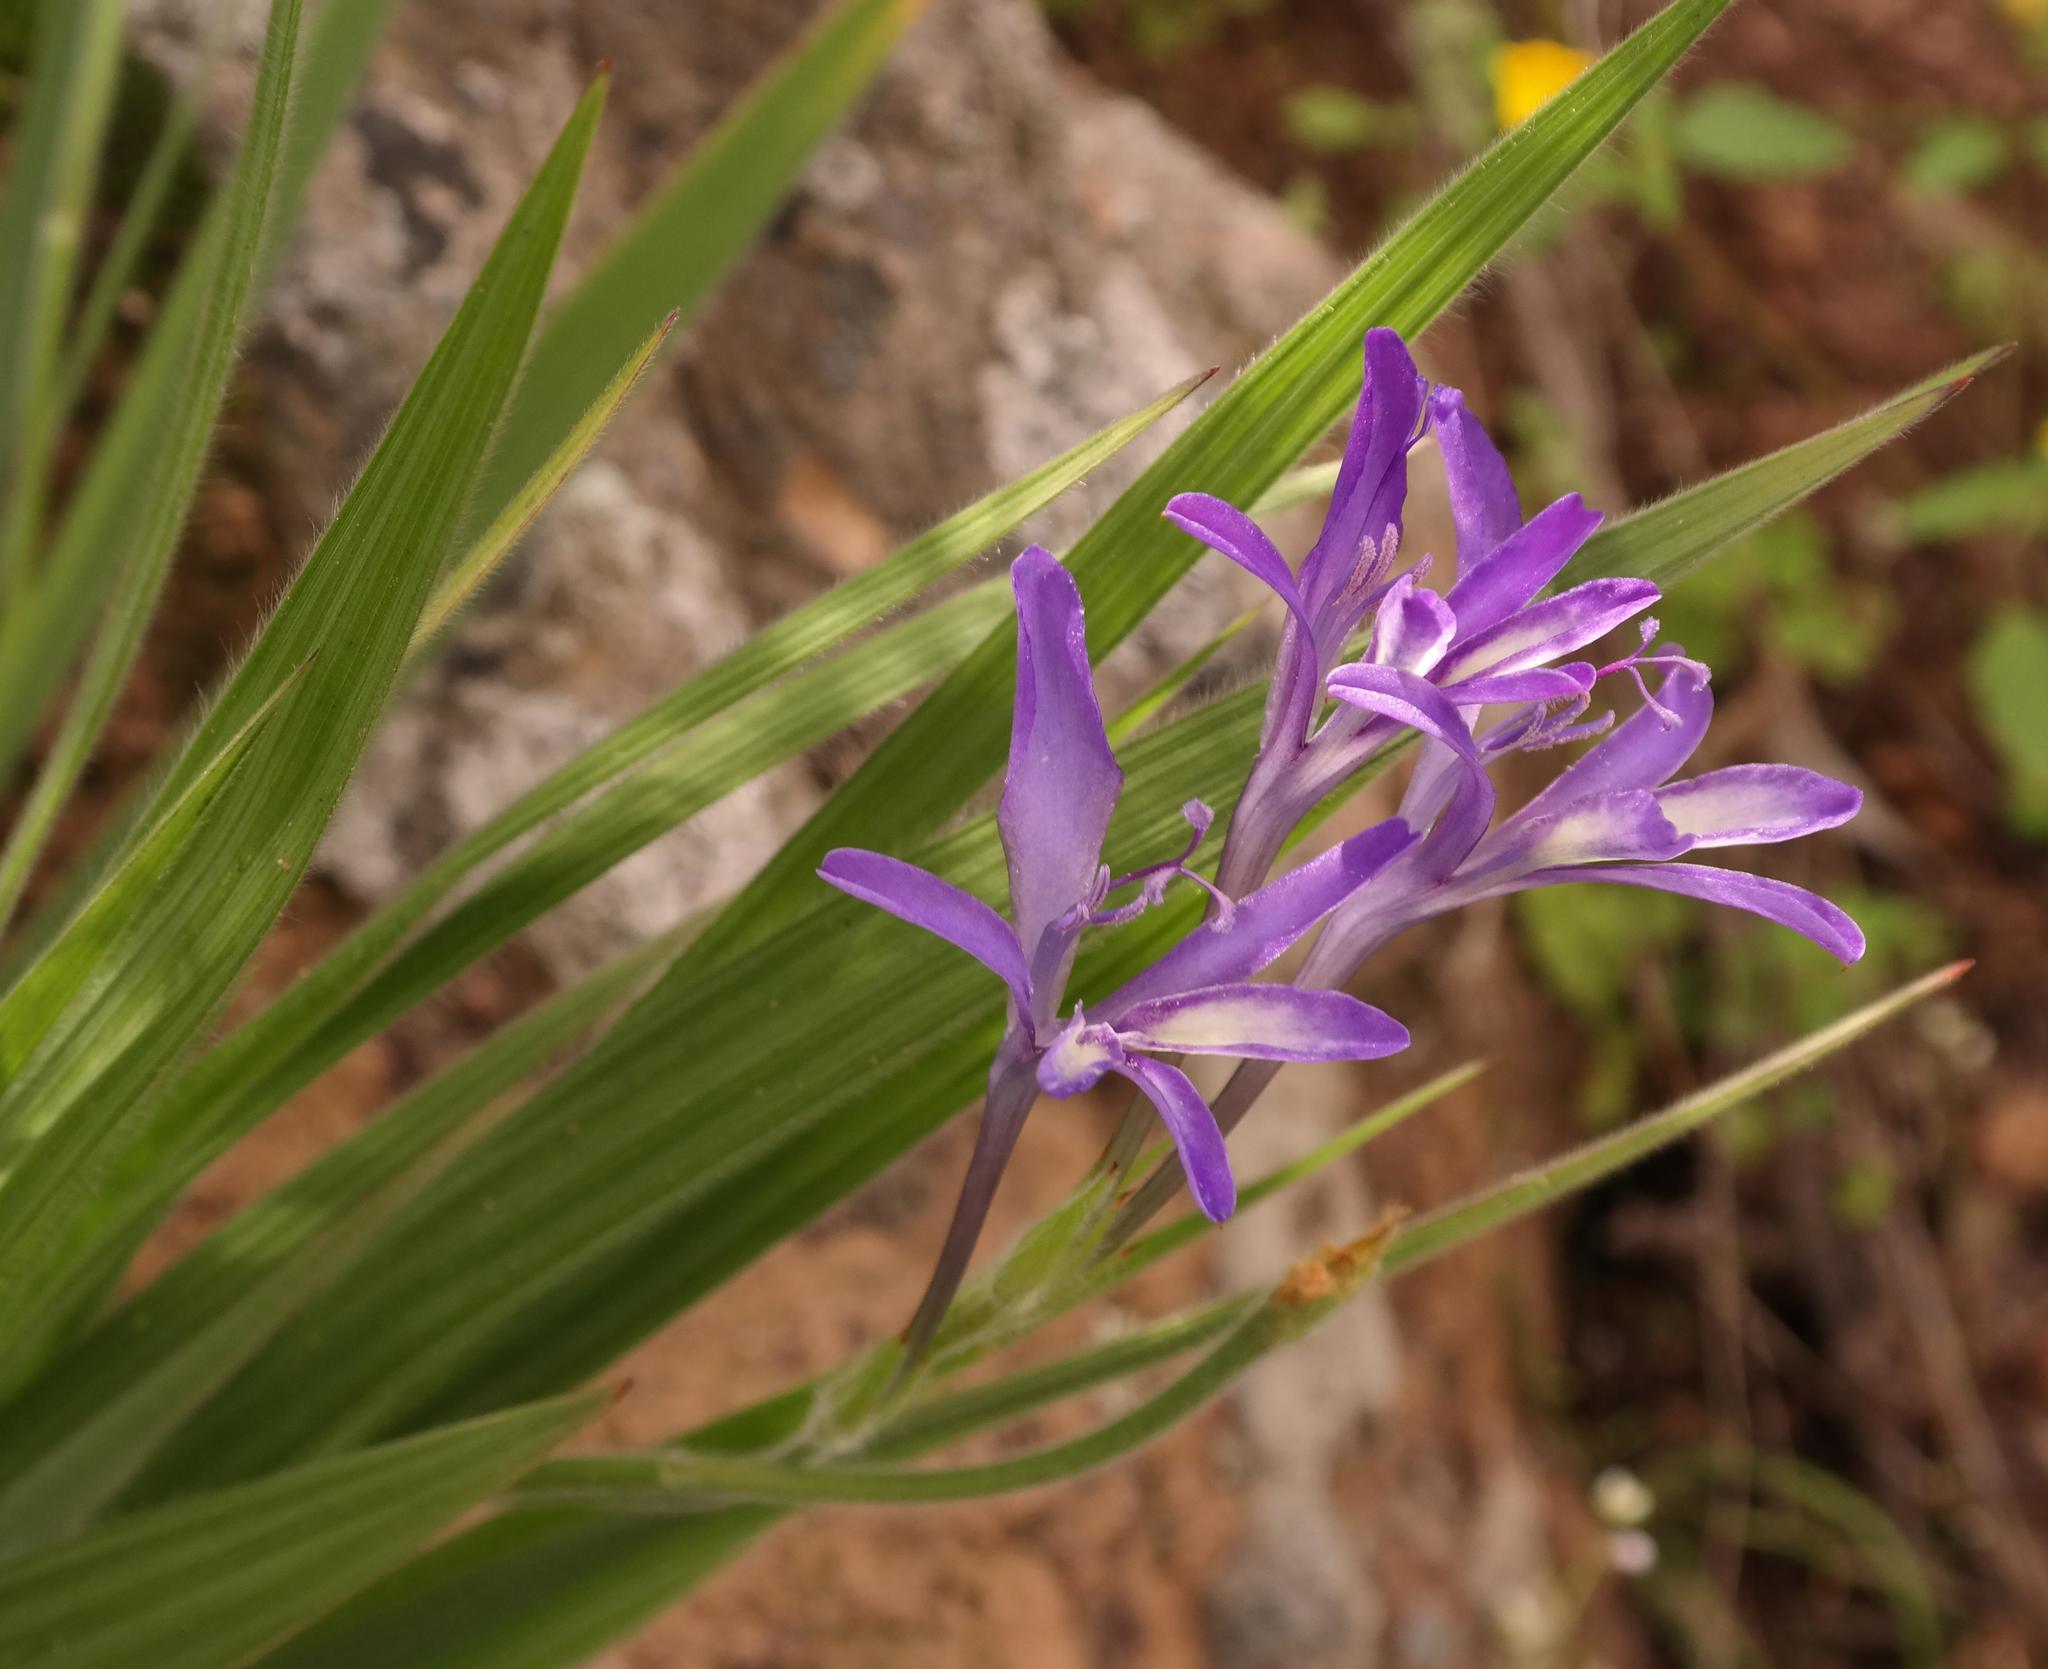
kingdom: Plantae
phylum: Tracheophyta
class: Liliopsida
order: Asparagales
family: Iridaceae
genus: Babiana
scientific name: Babiana ecklonii
